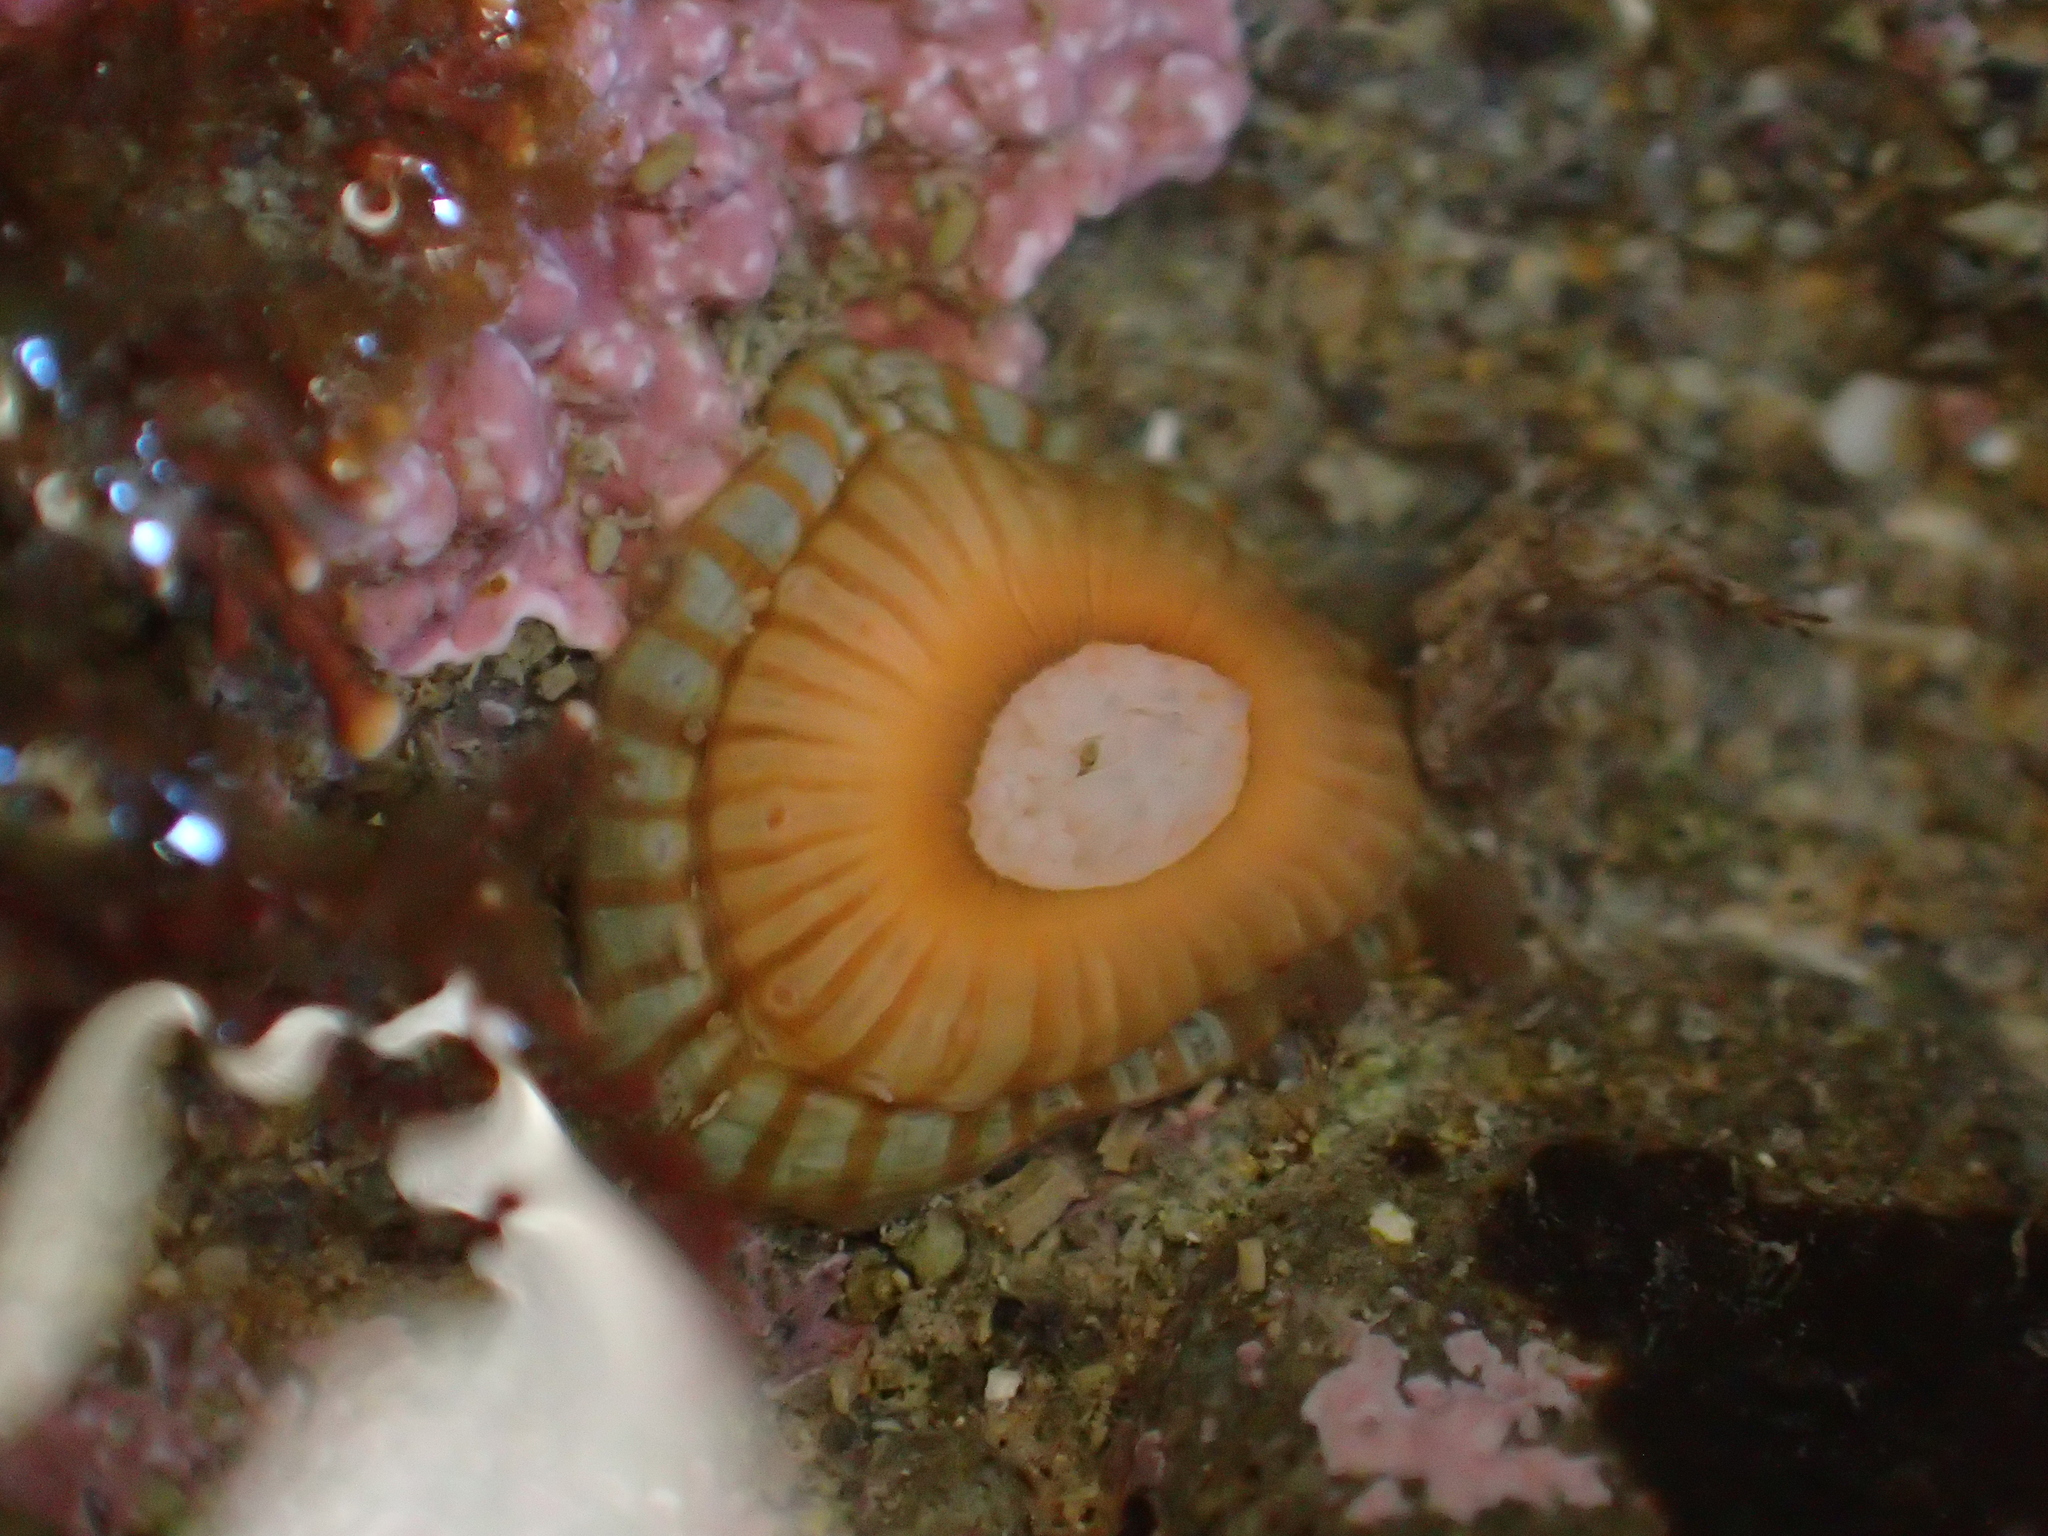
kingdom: Animalia
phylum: Cnidaria
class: Anthozoa
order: Actiniaria
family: Sagartiidae
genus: Anthothoe
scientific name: Anthothoe albocincta
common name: Orange striped anemone
